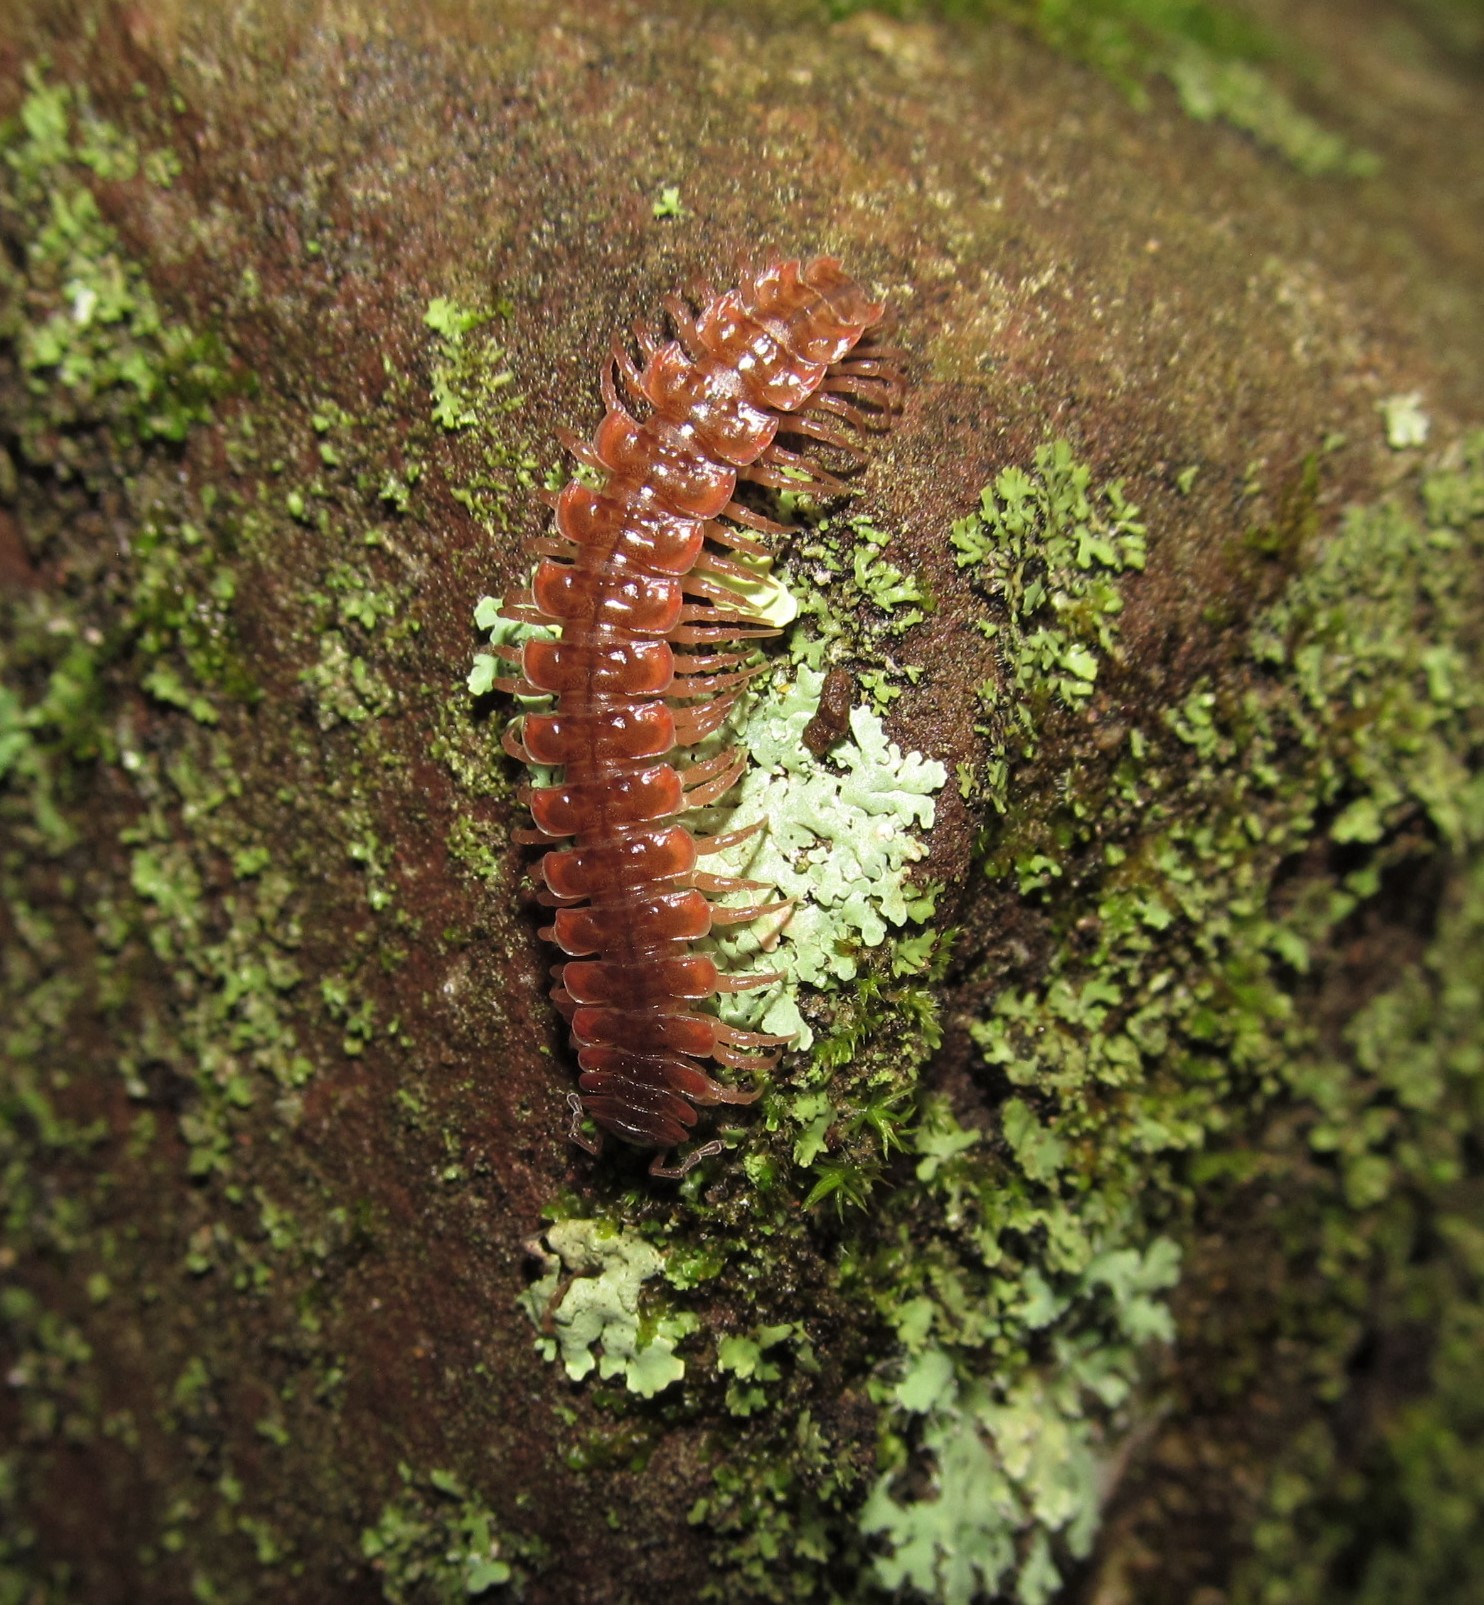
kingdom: Animalia
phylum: Arthropoda
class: Diplopoda
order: Polydesmida
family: Polydesmidae
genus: Pseudopolydesmus
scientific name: Pseudopolydesmus serratus
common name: Common pink flat-back millipede
